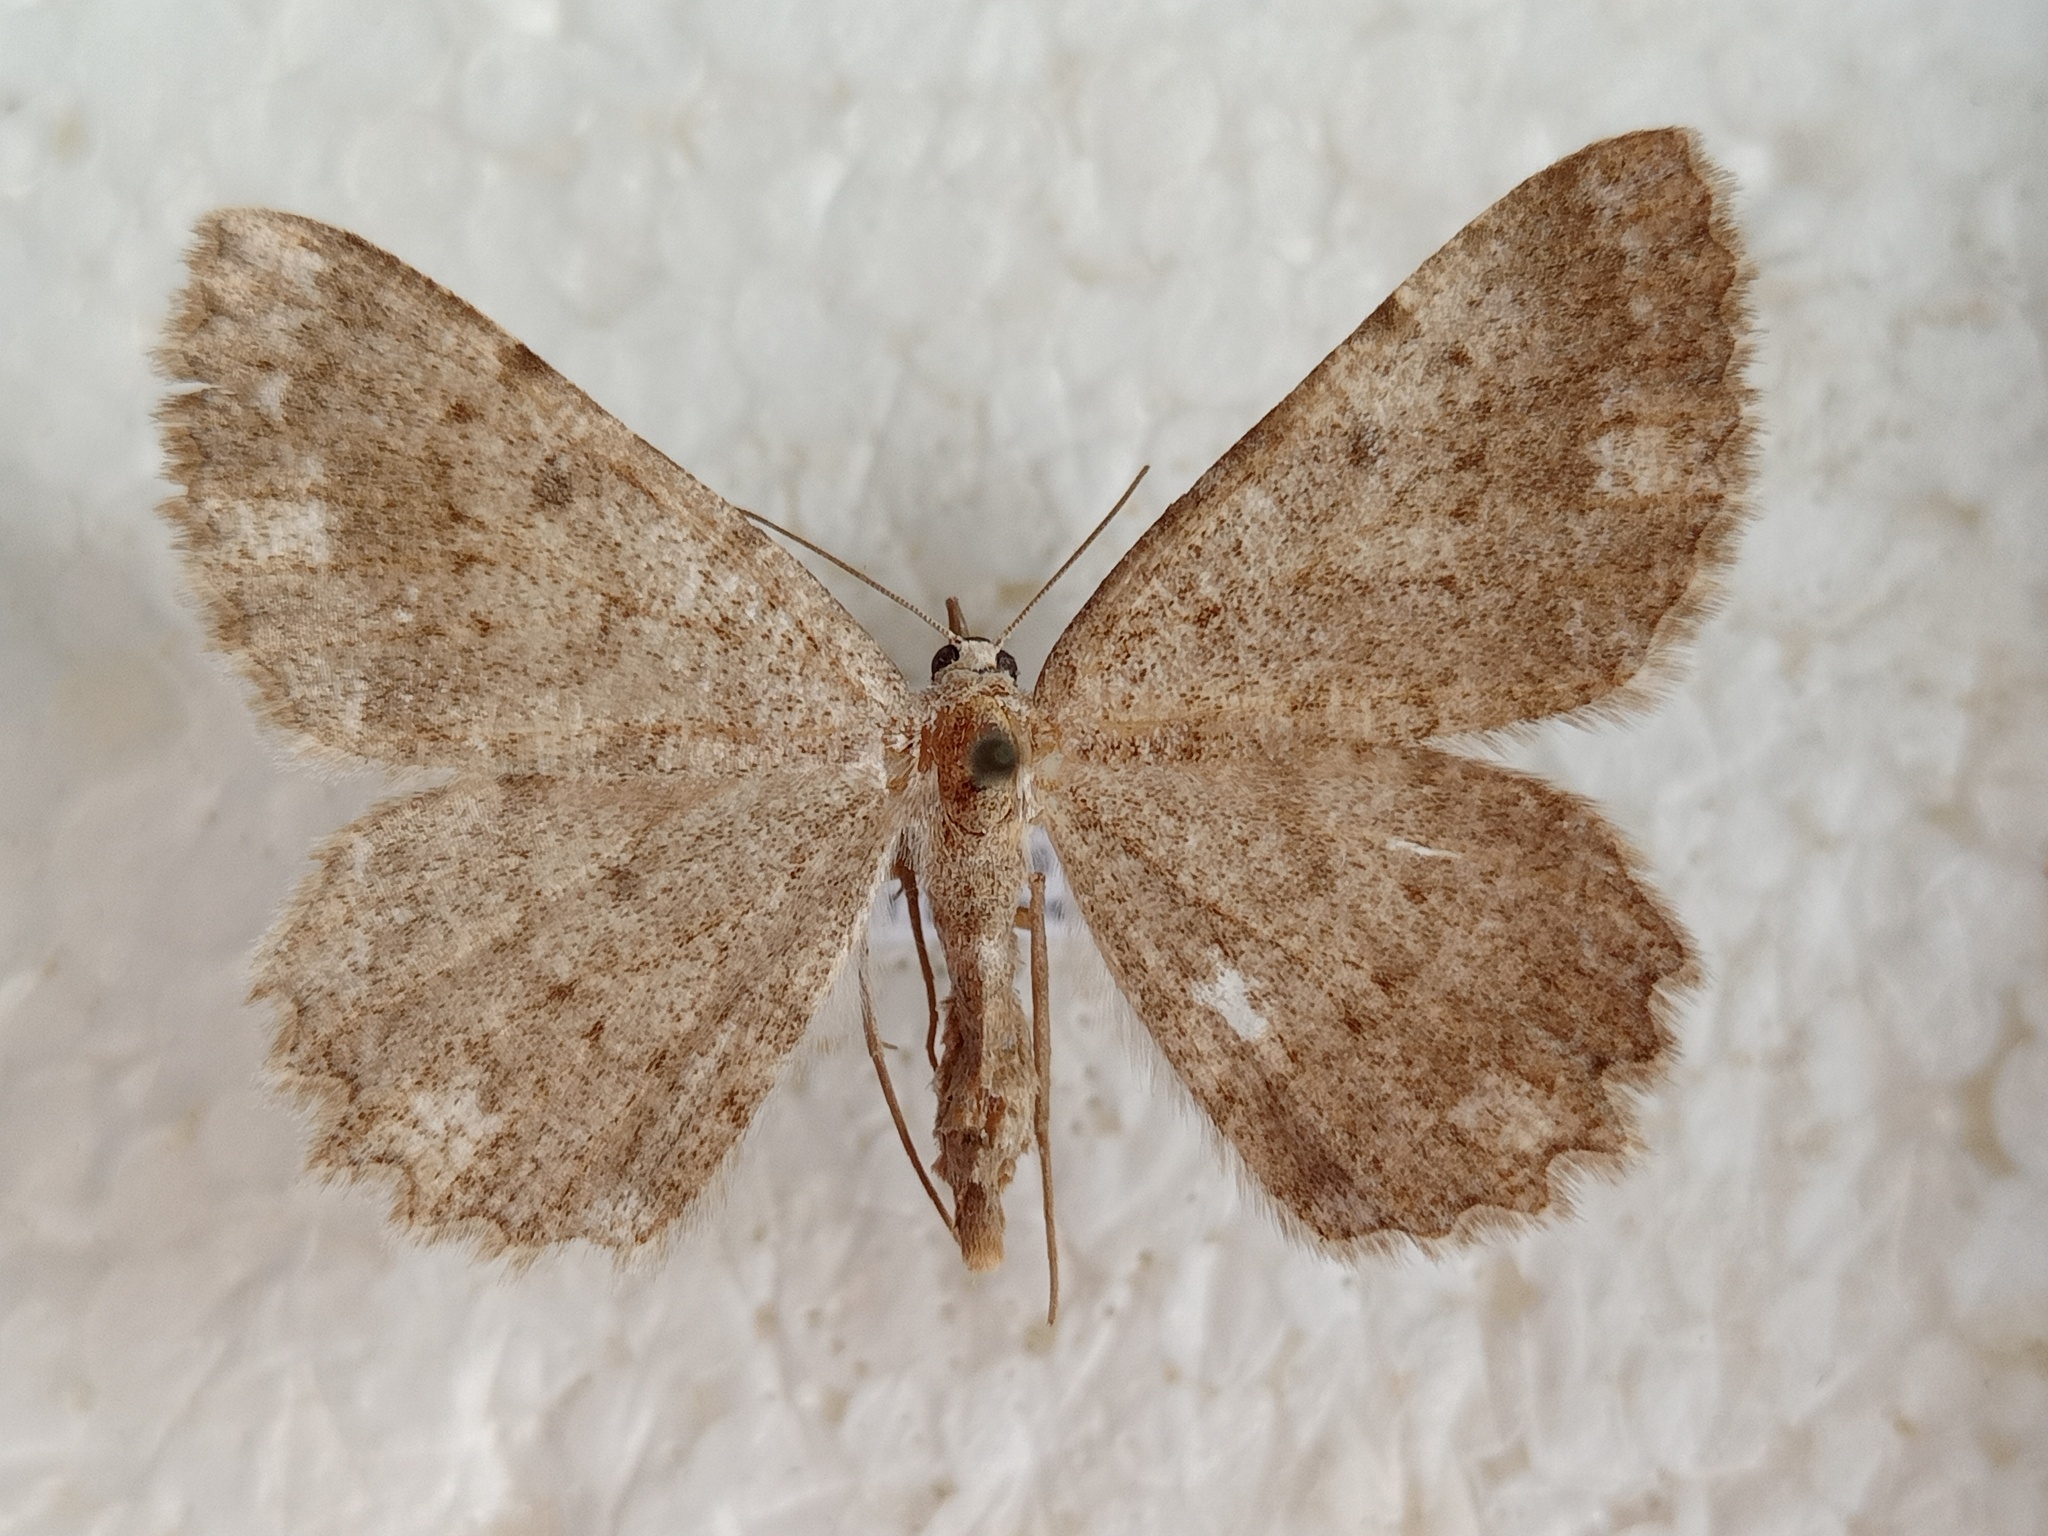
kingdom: Animalia
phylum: Arthropoda
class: Insecta
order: Lepidoptera
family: Geometridae
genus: Gnophos
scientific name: Gnophos sartata
